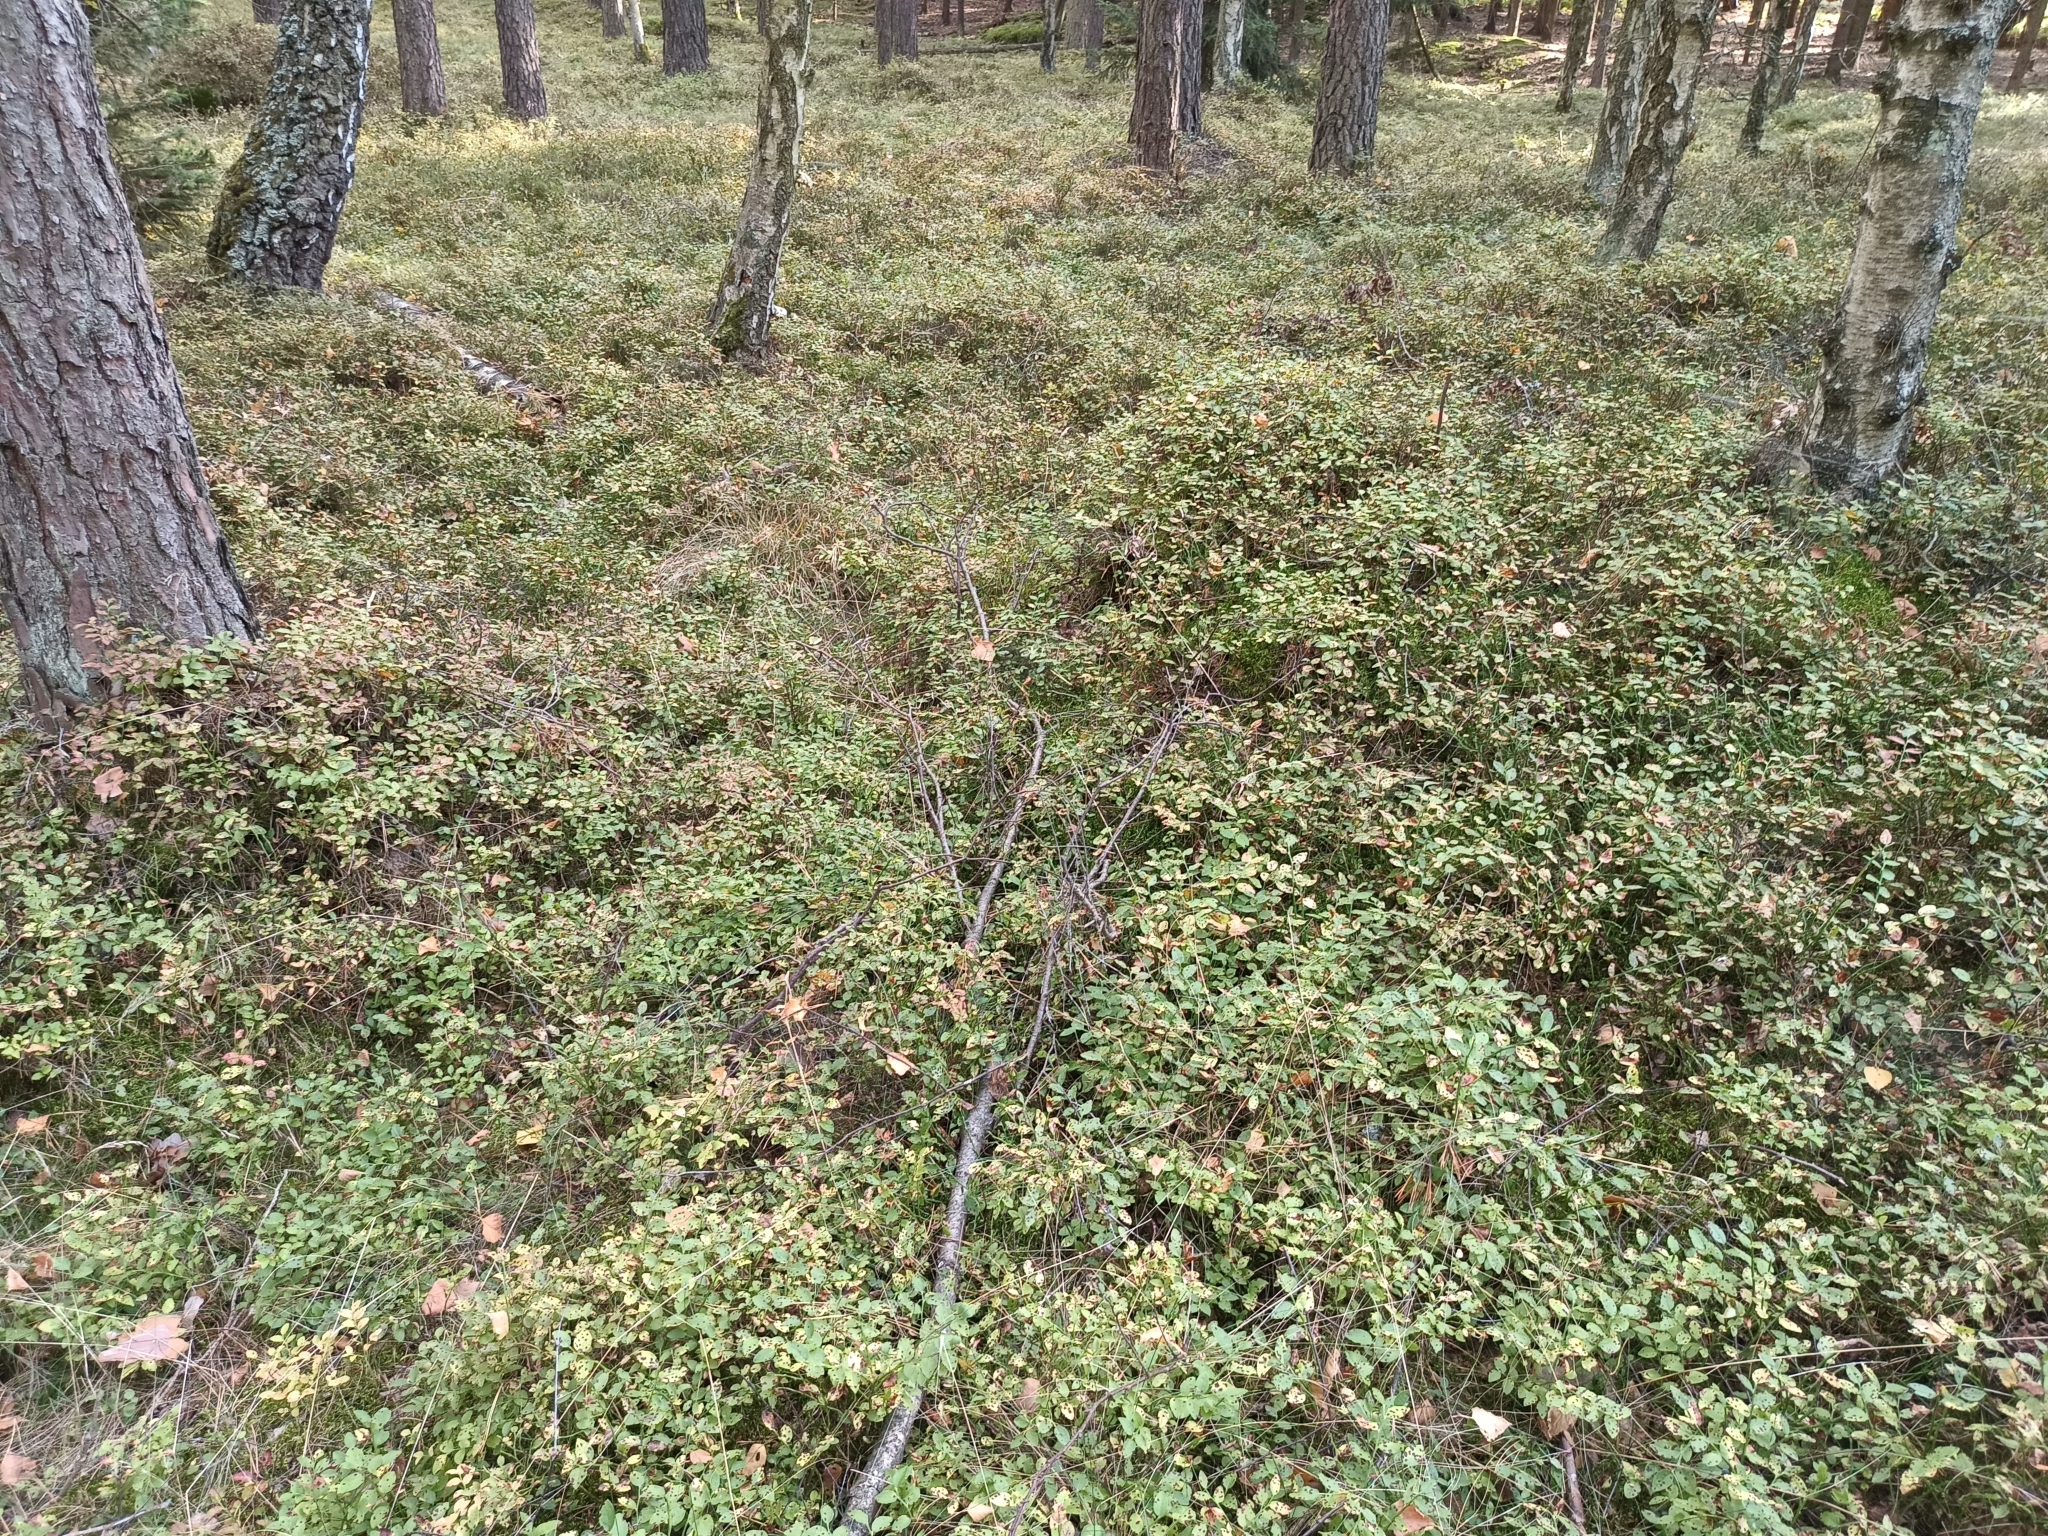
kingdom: Plantae
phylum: Tracheophyta
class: Magnoliopsida
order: Ericales
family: Ericaceae
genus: Vaccinium
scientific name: Vaccinium myrtillus
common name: Bilberry
